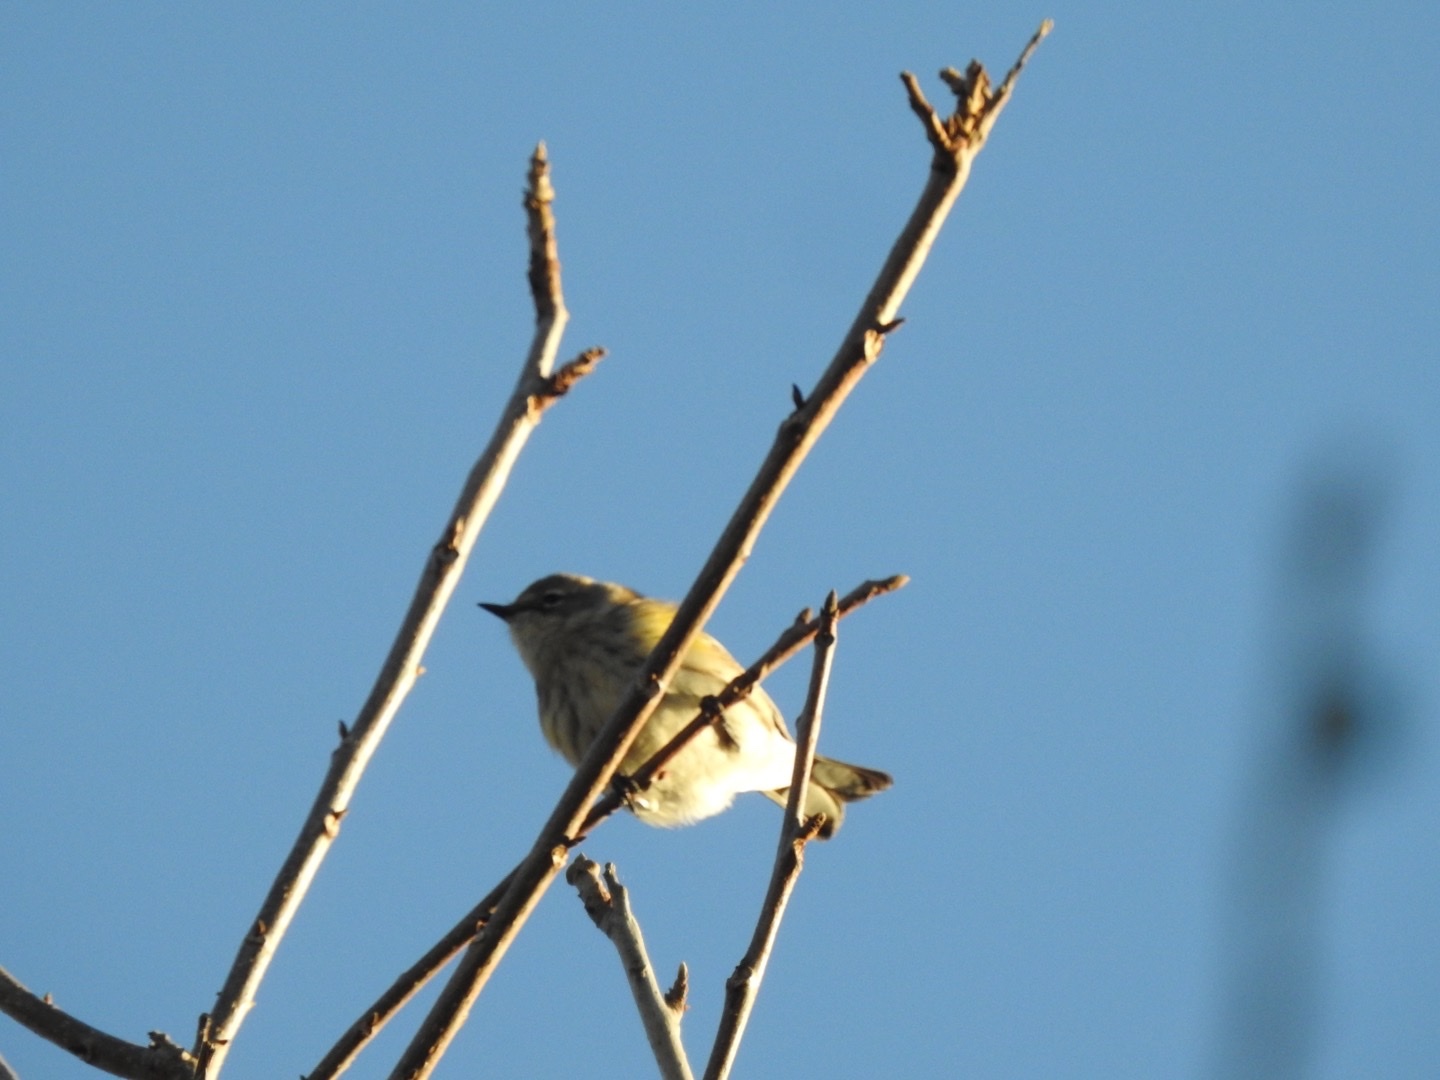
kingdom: Animalia
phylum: Chordata
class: Aves
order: Passeriformes
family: Parulidae
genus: Setophaga
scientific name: Setophaga coronata
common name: Myrtle warbler
